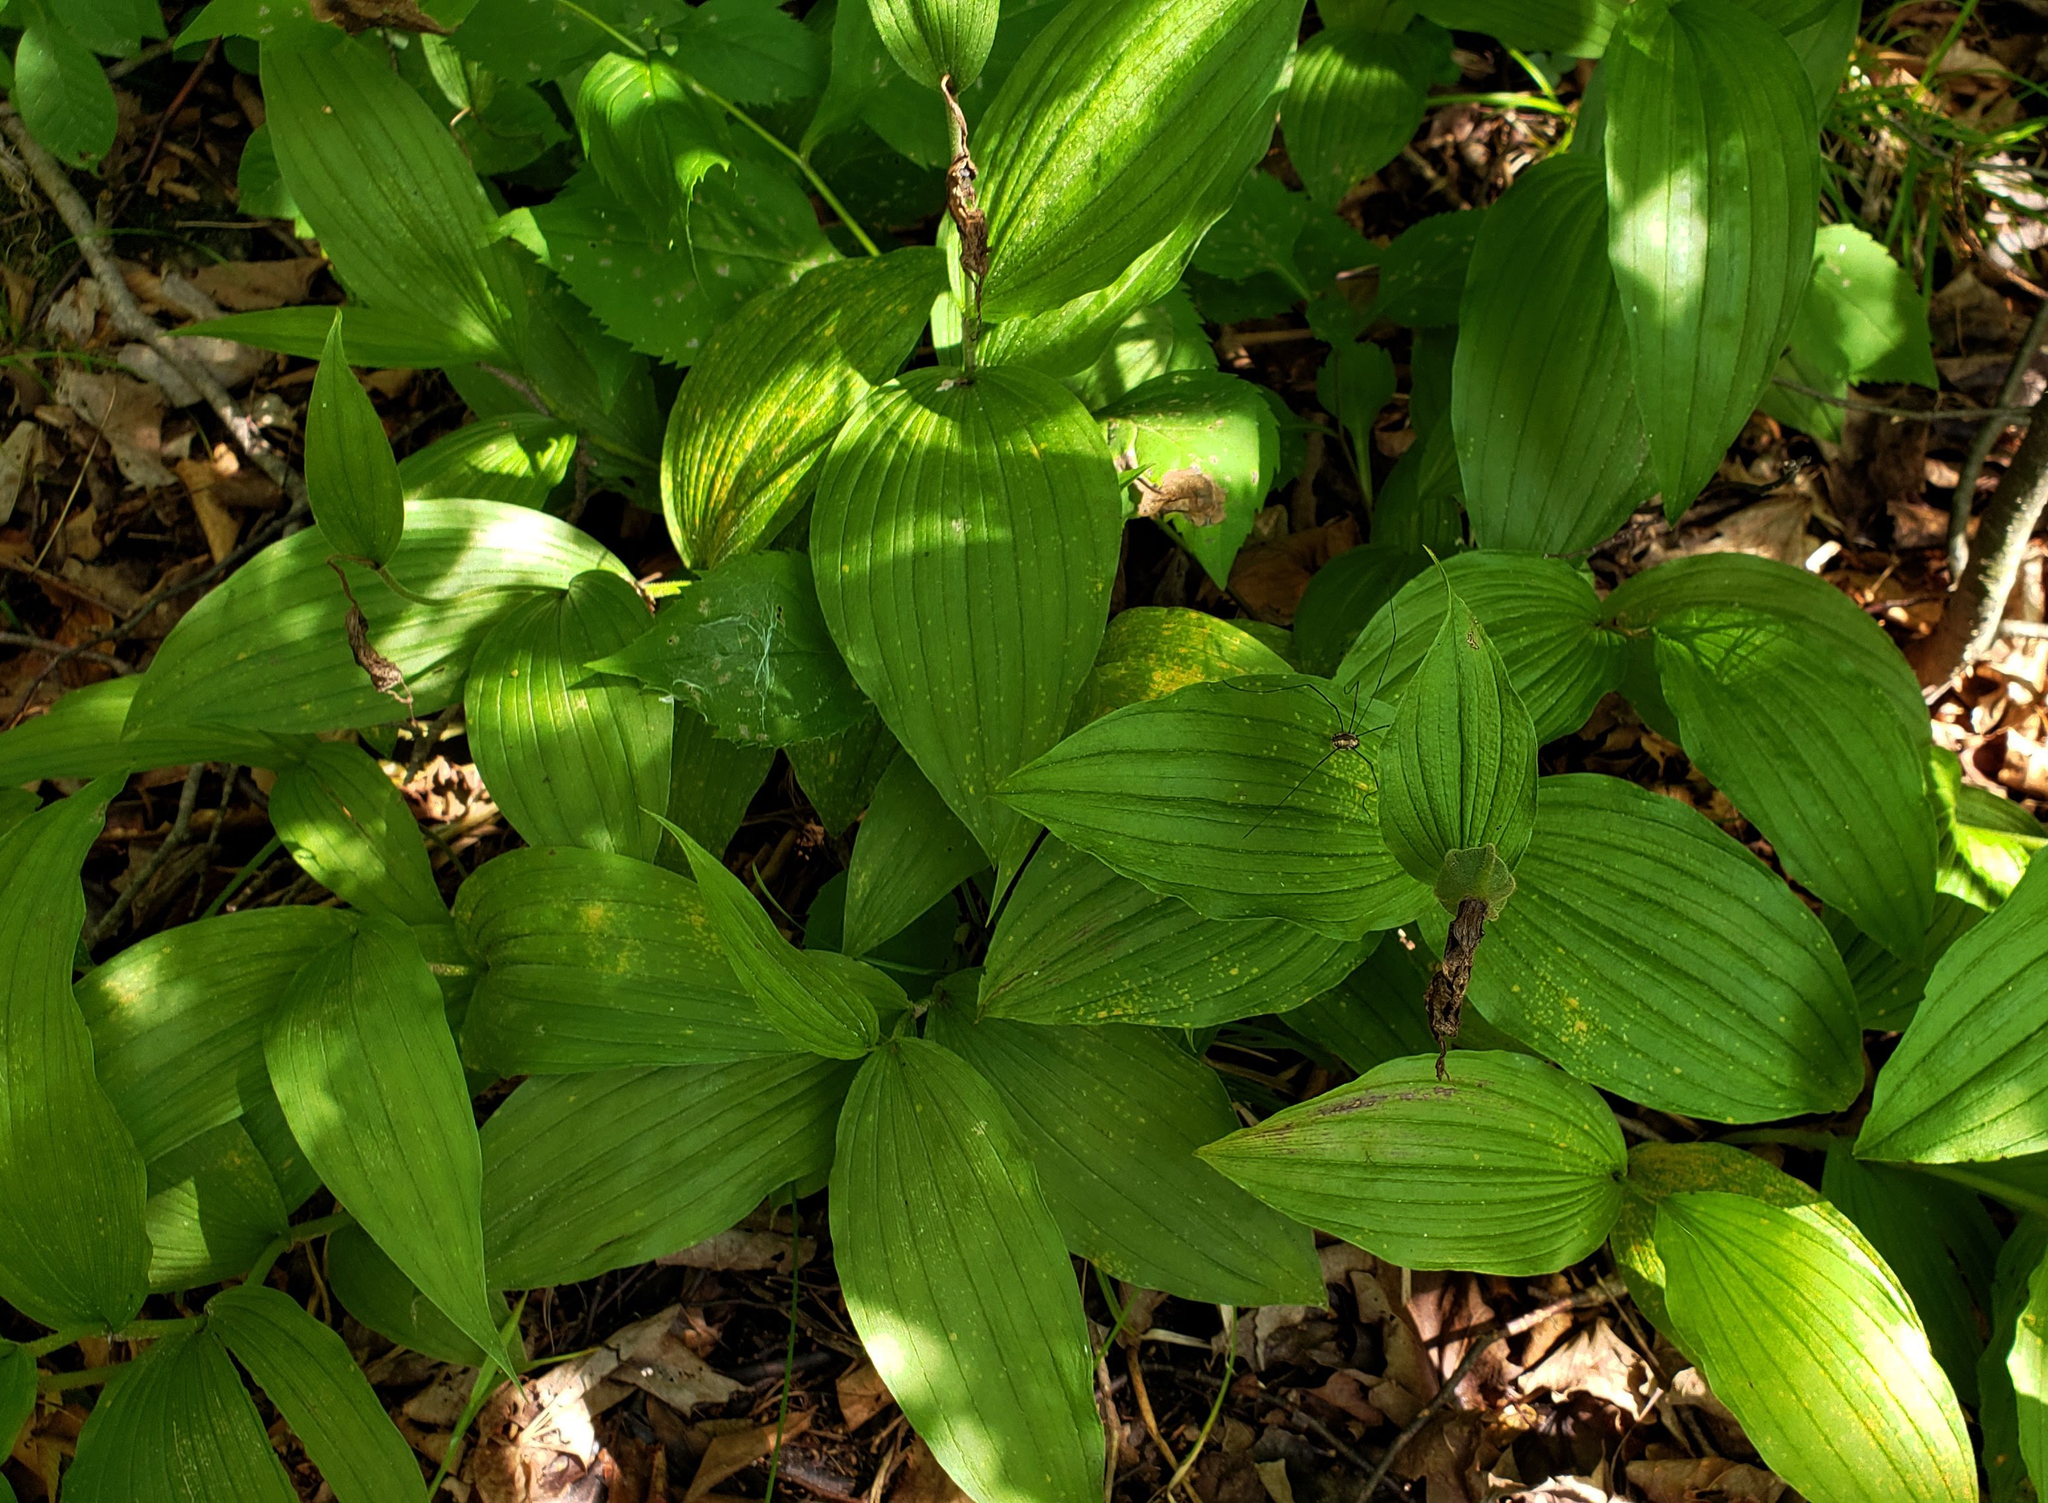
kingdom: Plantae
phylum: Tracheophyta
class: Liliopsida
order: Asparagales
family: Orchidaceae
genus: Cypripedium
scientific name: Cypripedium parviflorum
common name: American yellow lady's-slipper
